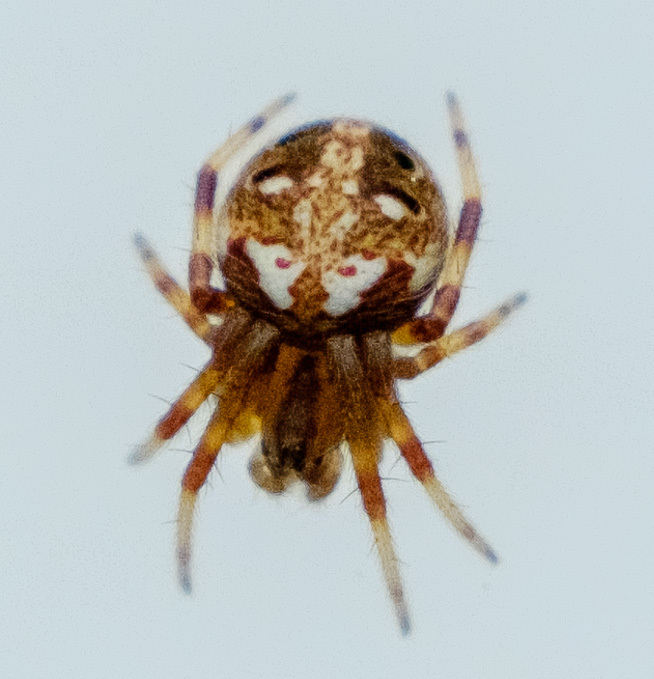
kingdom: Animalia
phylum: Arthropoda
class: Arachnida
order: Araneae
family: Araneidae
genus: Neoscona
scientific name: Neoscona arabesca
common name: Orb weavers
